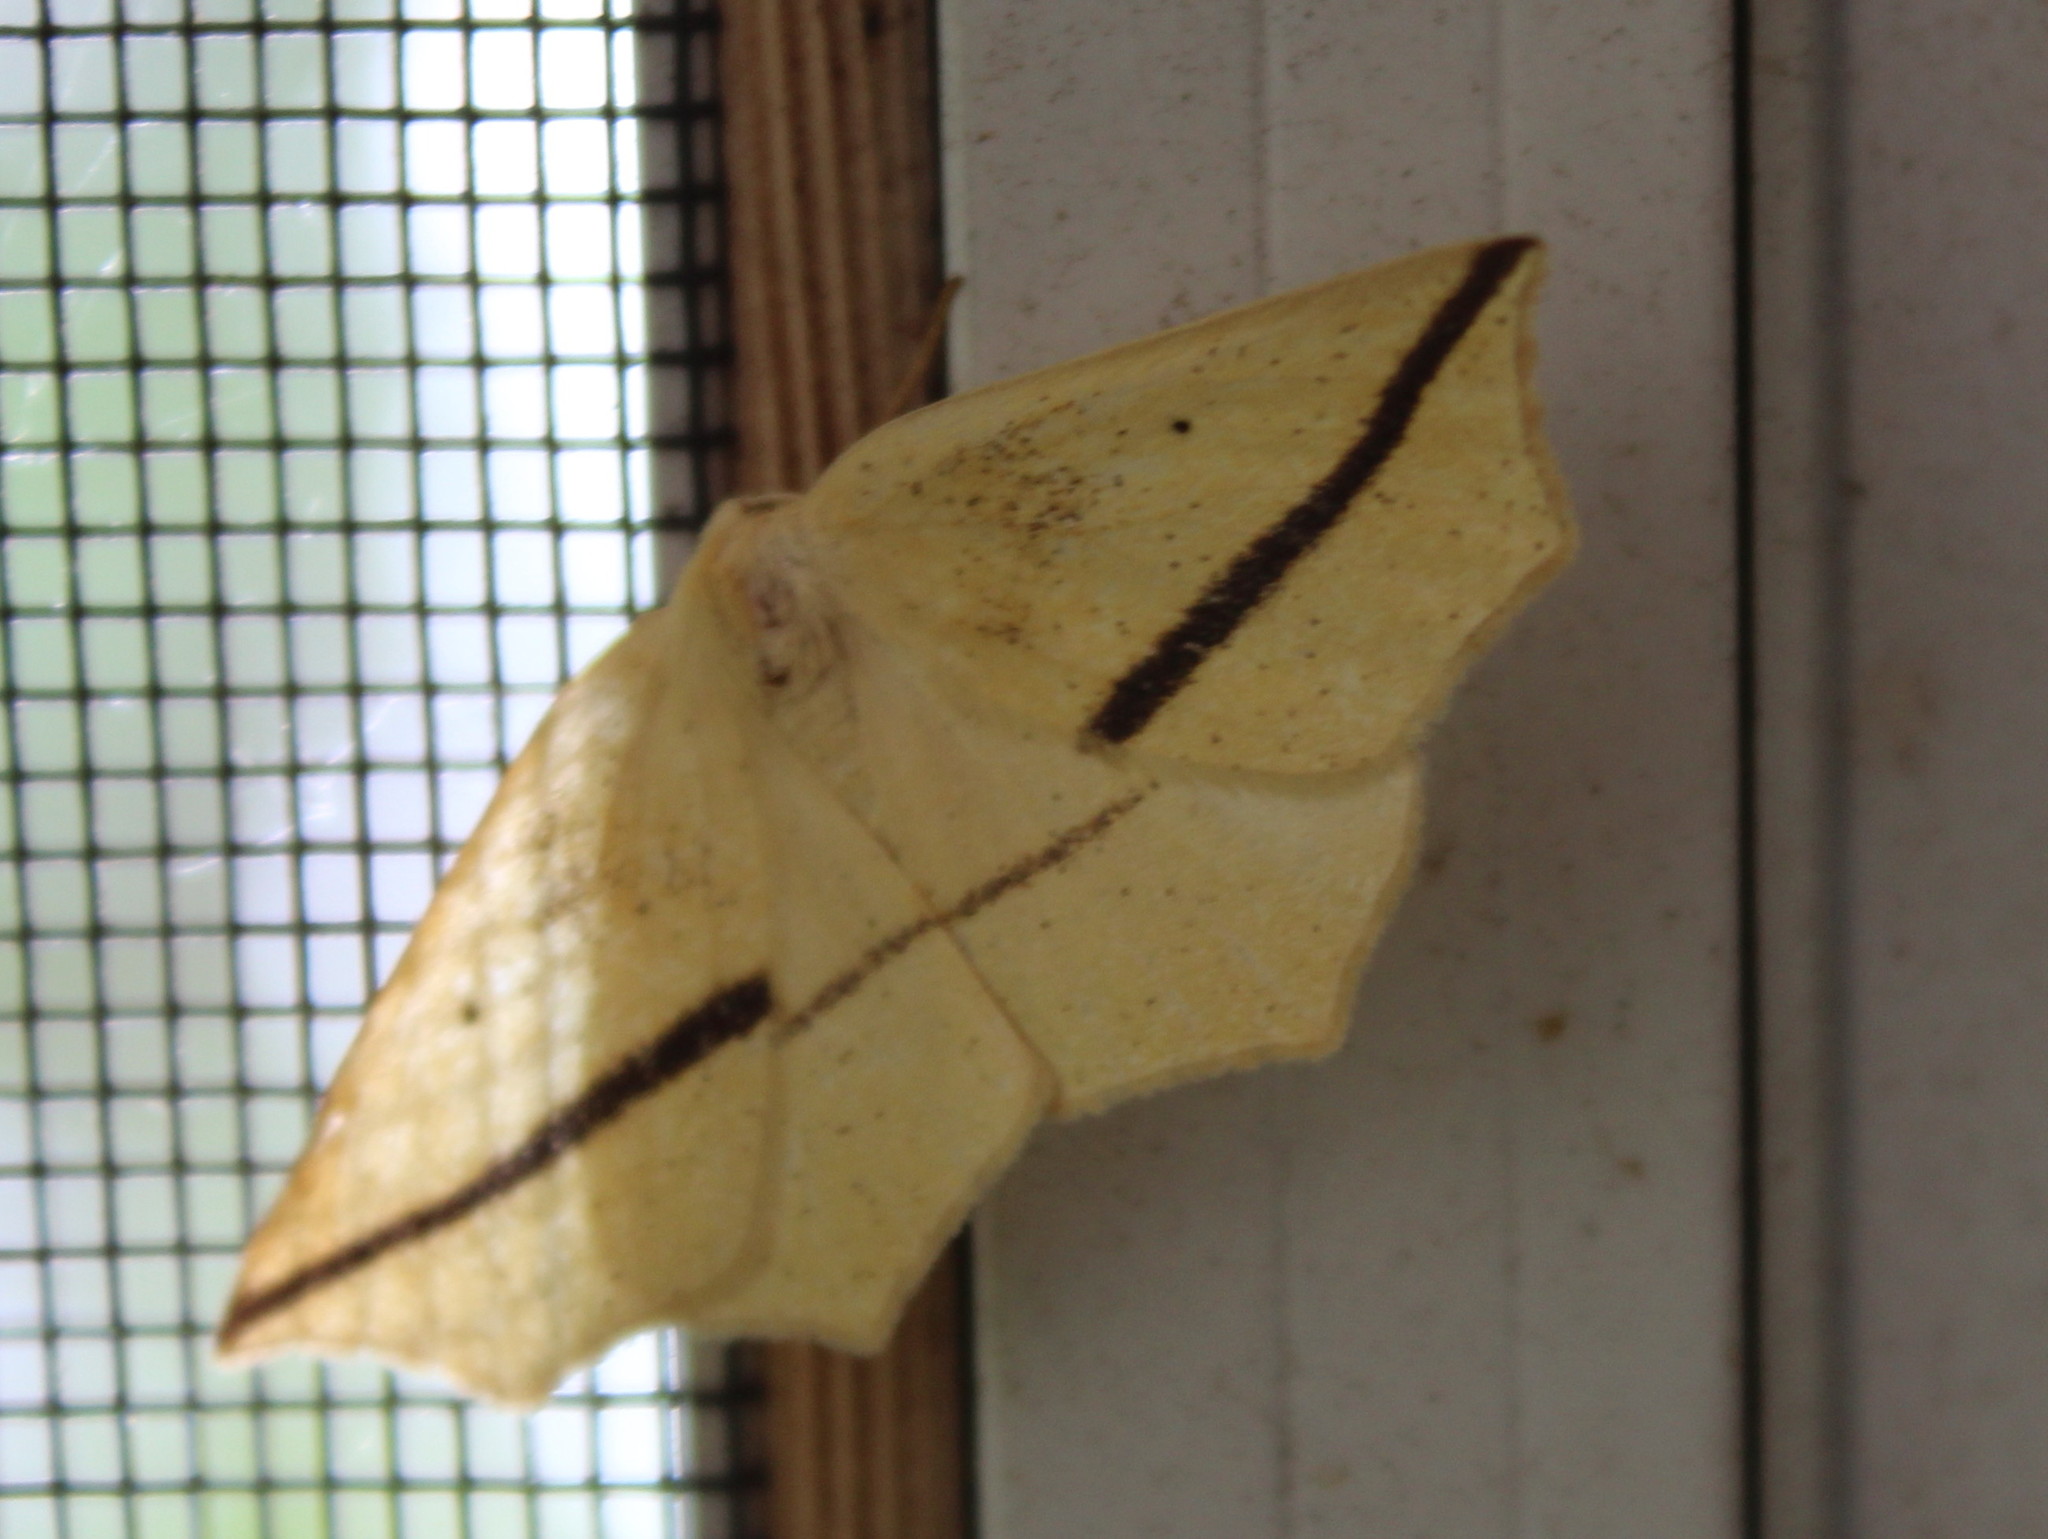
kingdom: Animalia
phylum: Arthropoda
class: Insecta
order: Lepidoptera
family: Geometridae
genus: Tetracis
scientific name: Tetracis crocallata
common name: Yellow slant-line
